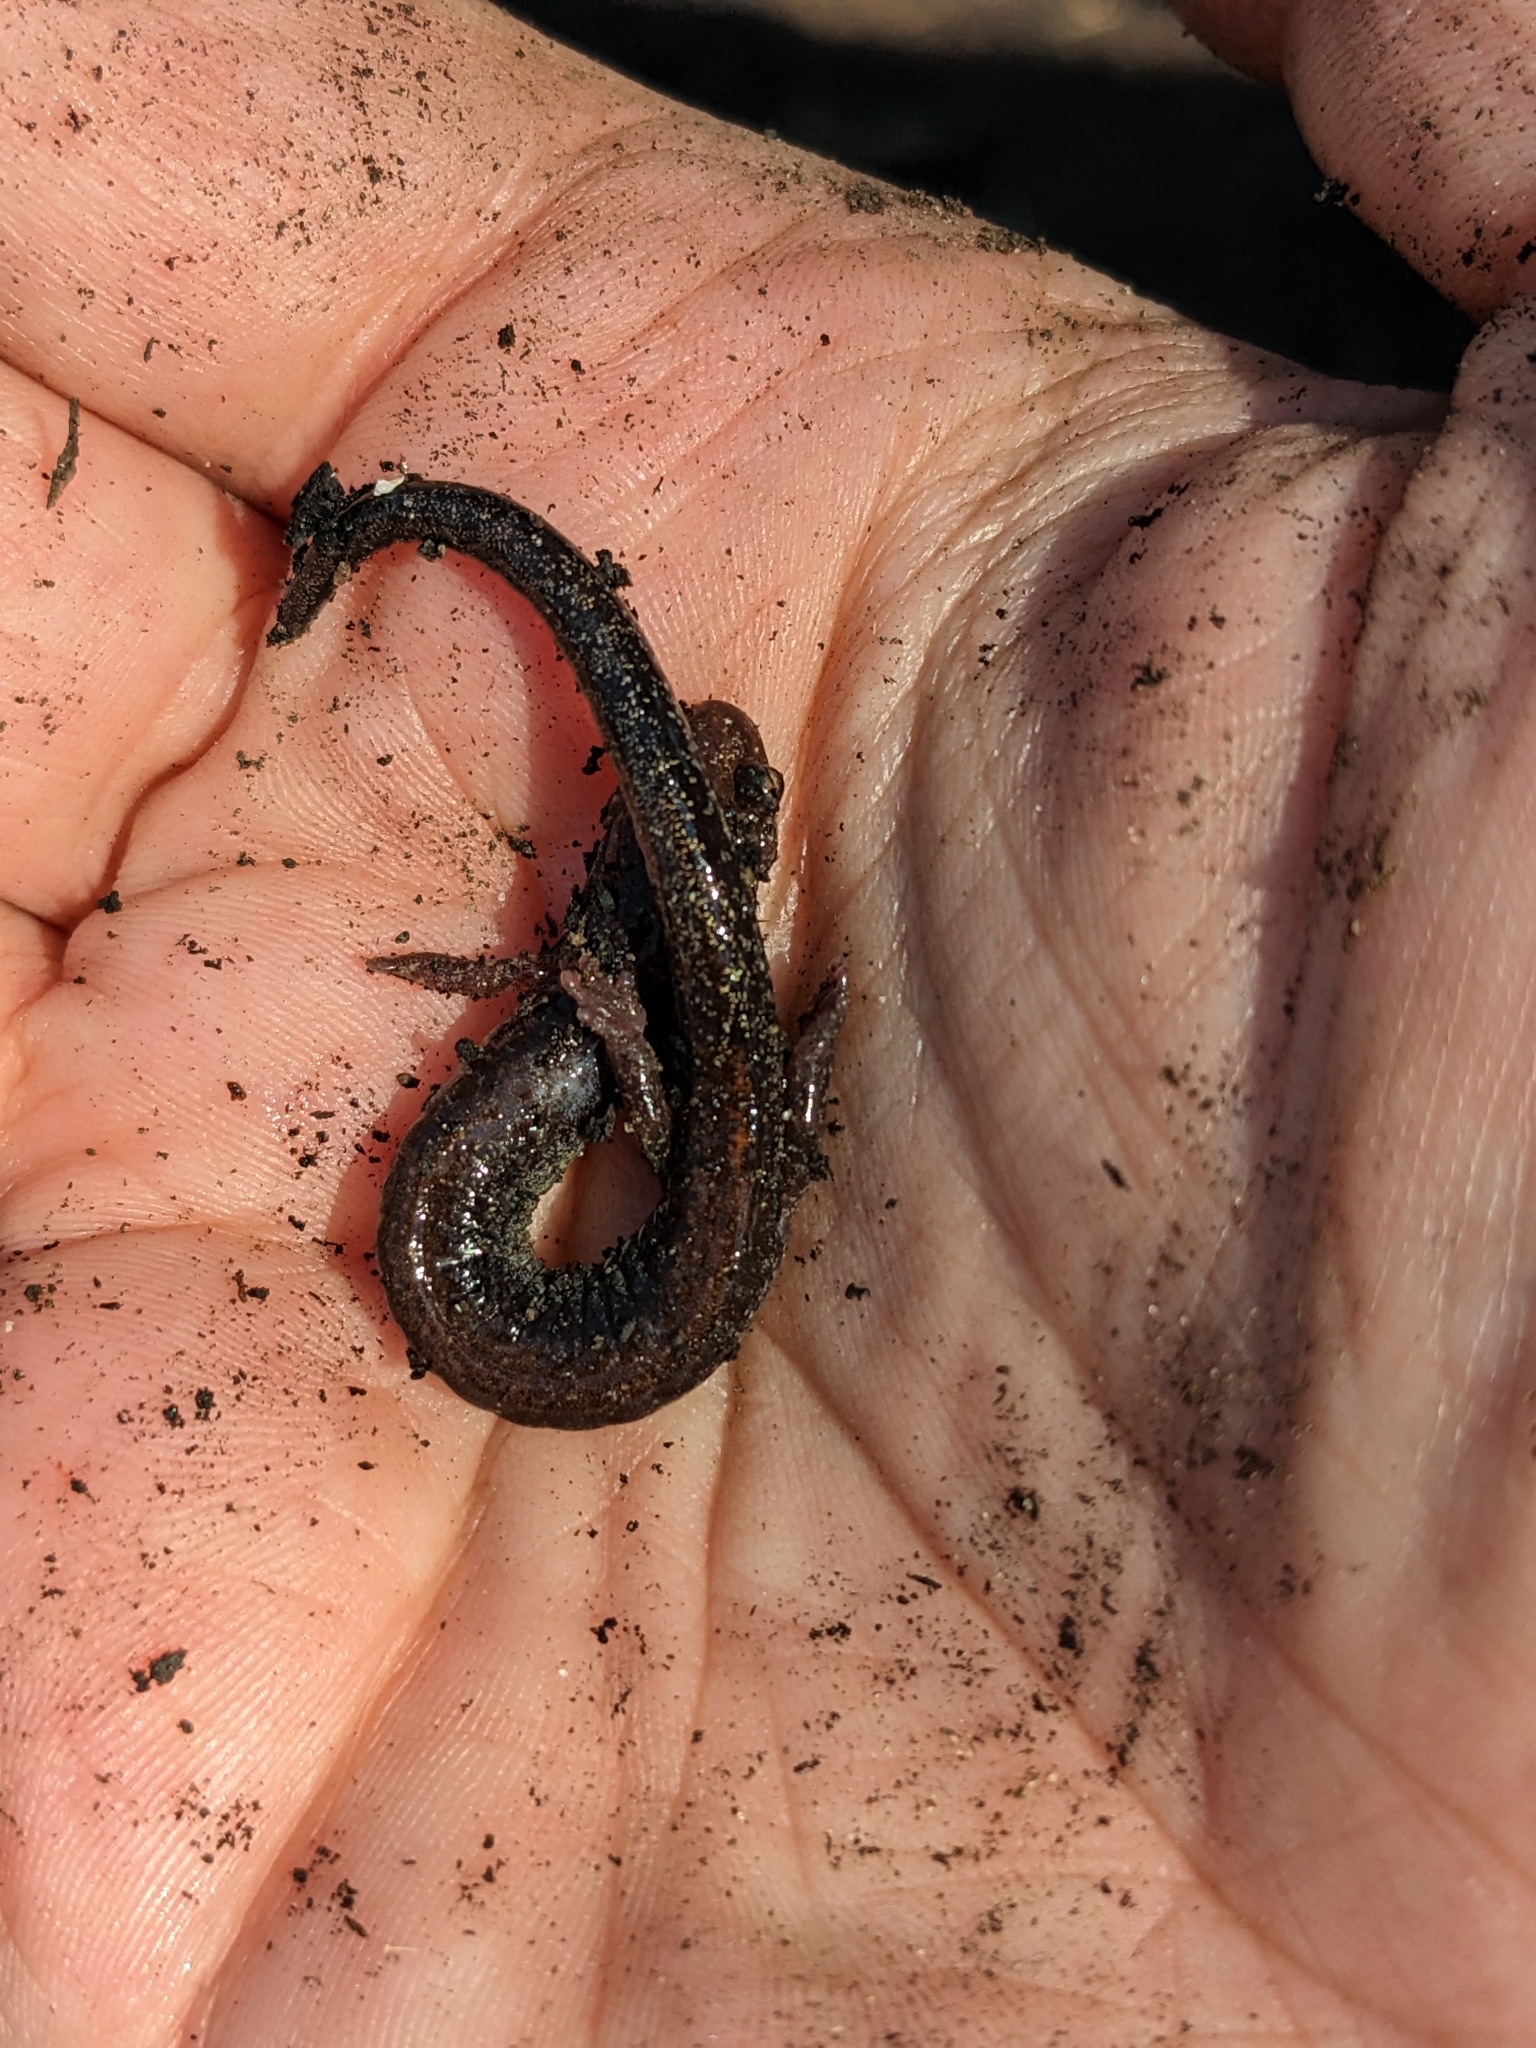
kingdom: Animalia
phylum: Chordata
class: Amphibia
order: Caudata
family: Plethodontidae
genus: Plethodon
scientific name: Plethodon cinereus
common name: Redback salamander
